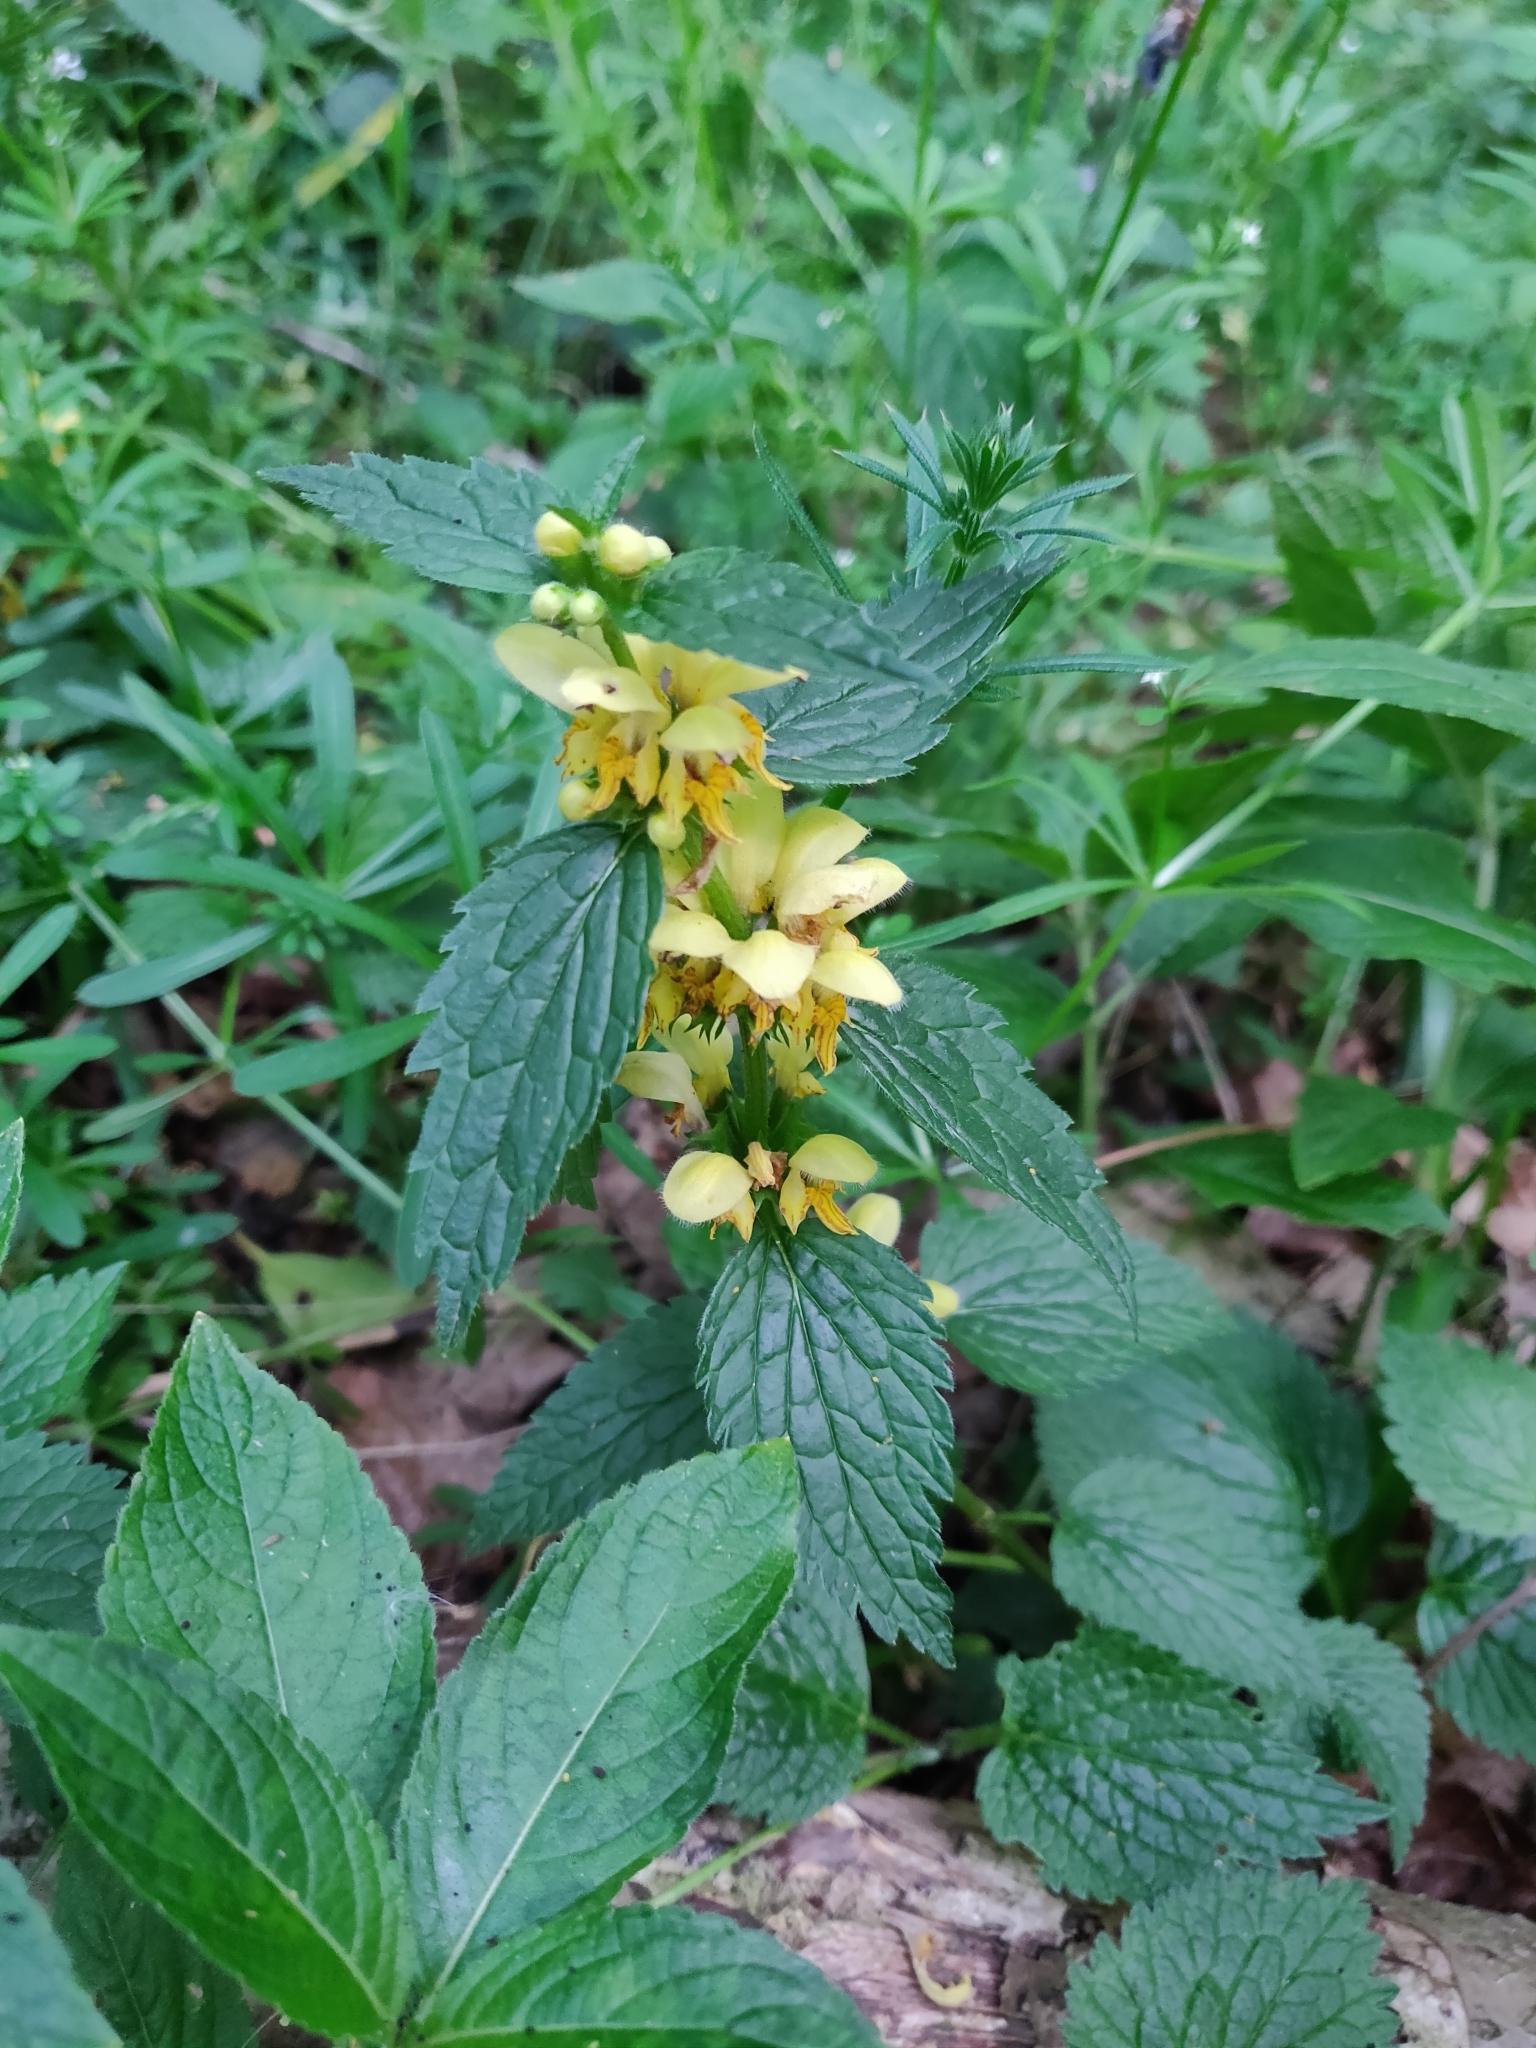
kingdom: Plantae
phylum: Tracheophyta
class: Magnoliopsida
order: Lamiales
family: Lamiaceae
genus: Lamium
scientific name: Lamium galeobdolon
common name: Yellow archangel
